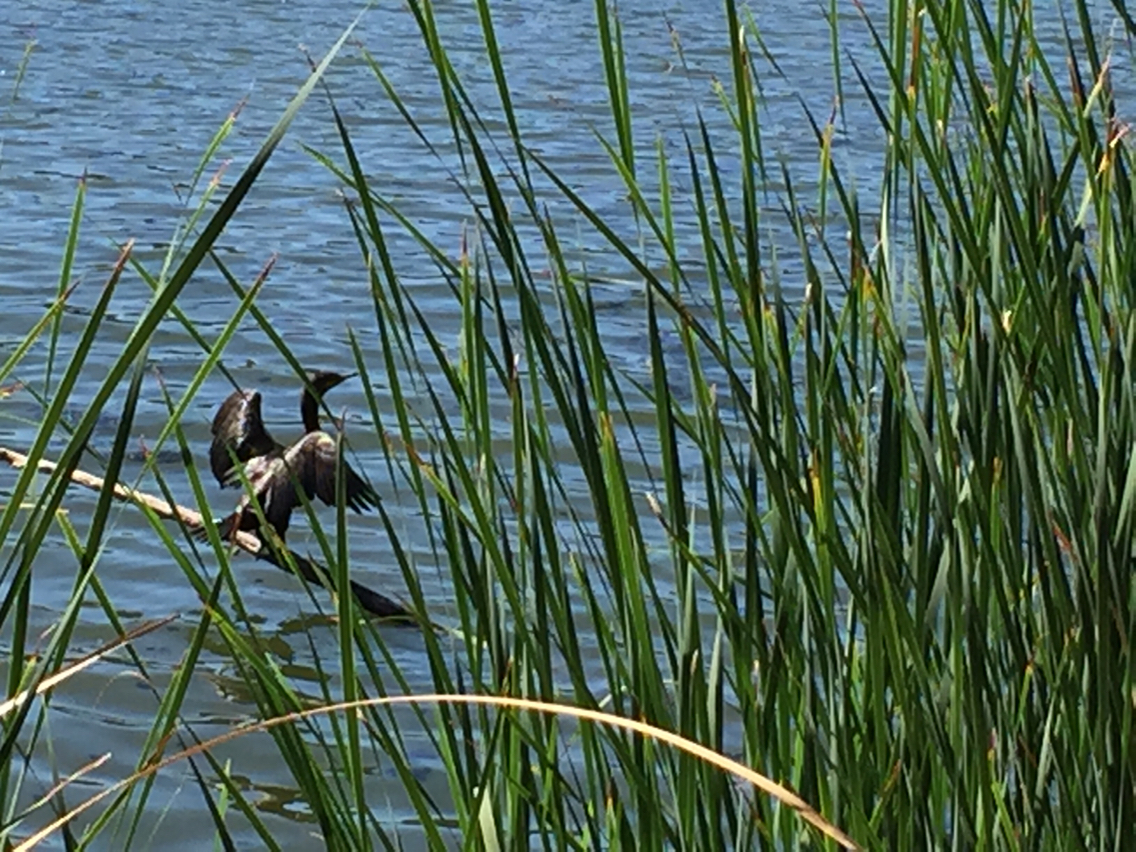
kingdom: Animalia
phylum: Chordata
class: Aves
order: Suliformes
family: Phalacrocoracidae
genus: Phalacrocorax
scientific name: Phalacrocorax auritus
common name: Double-crested cormorant
